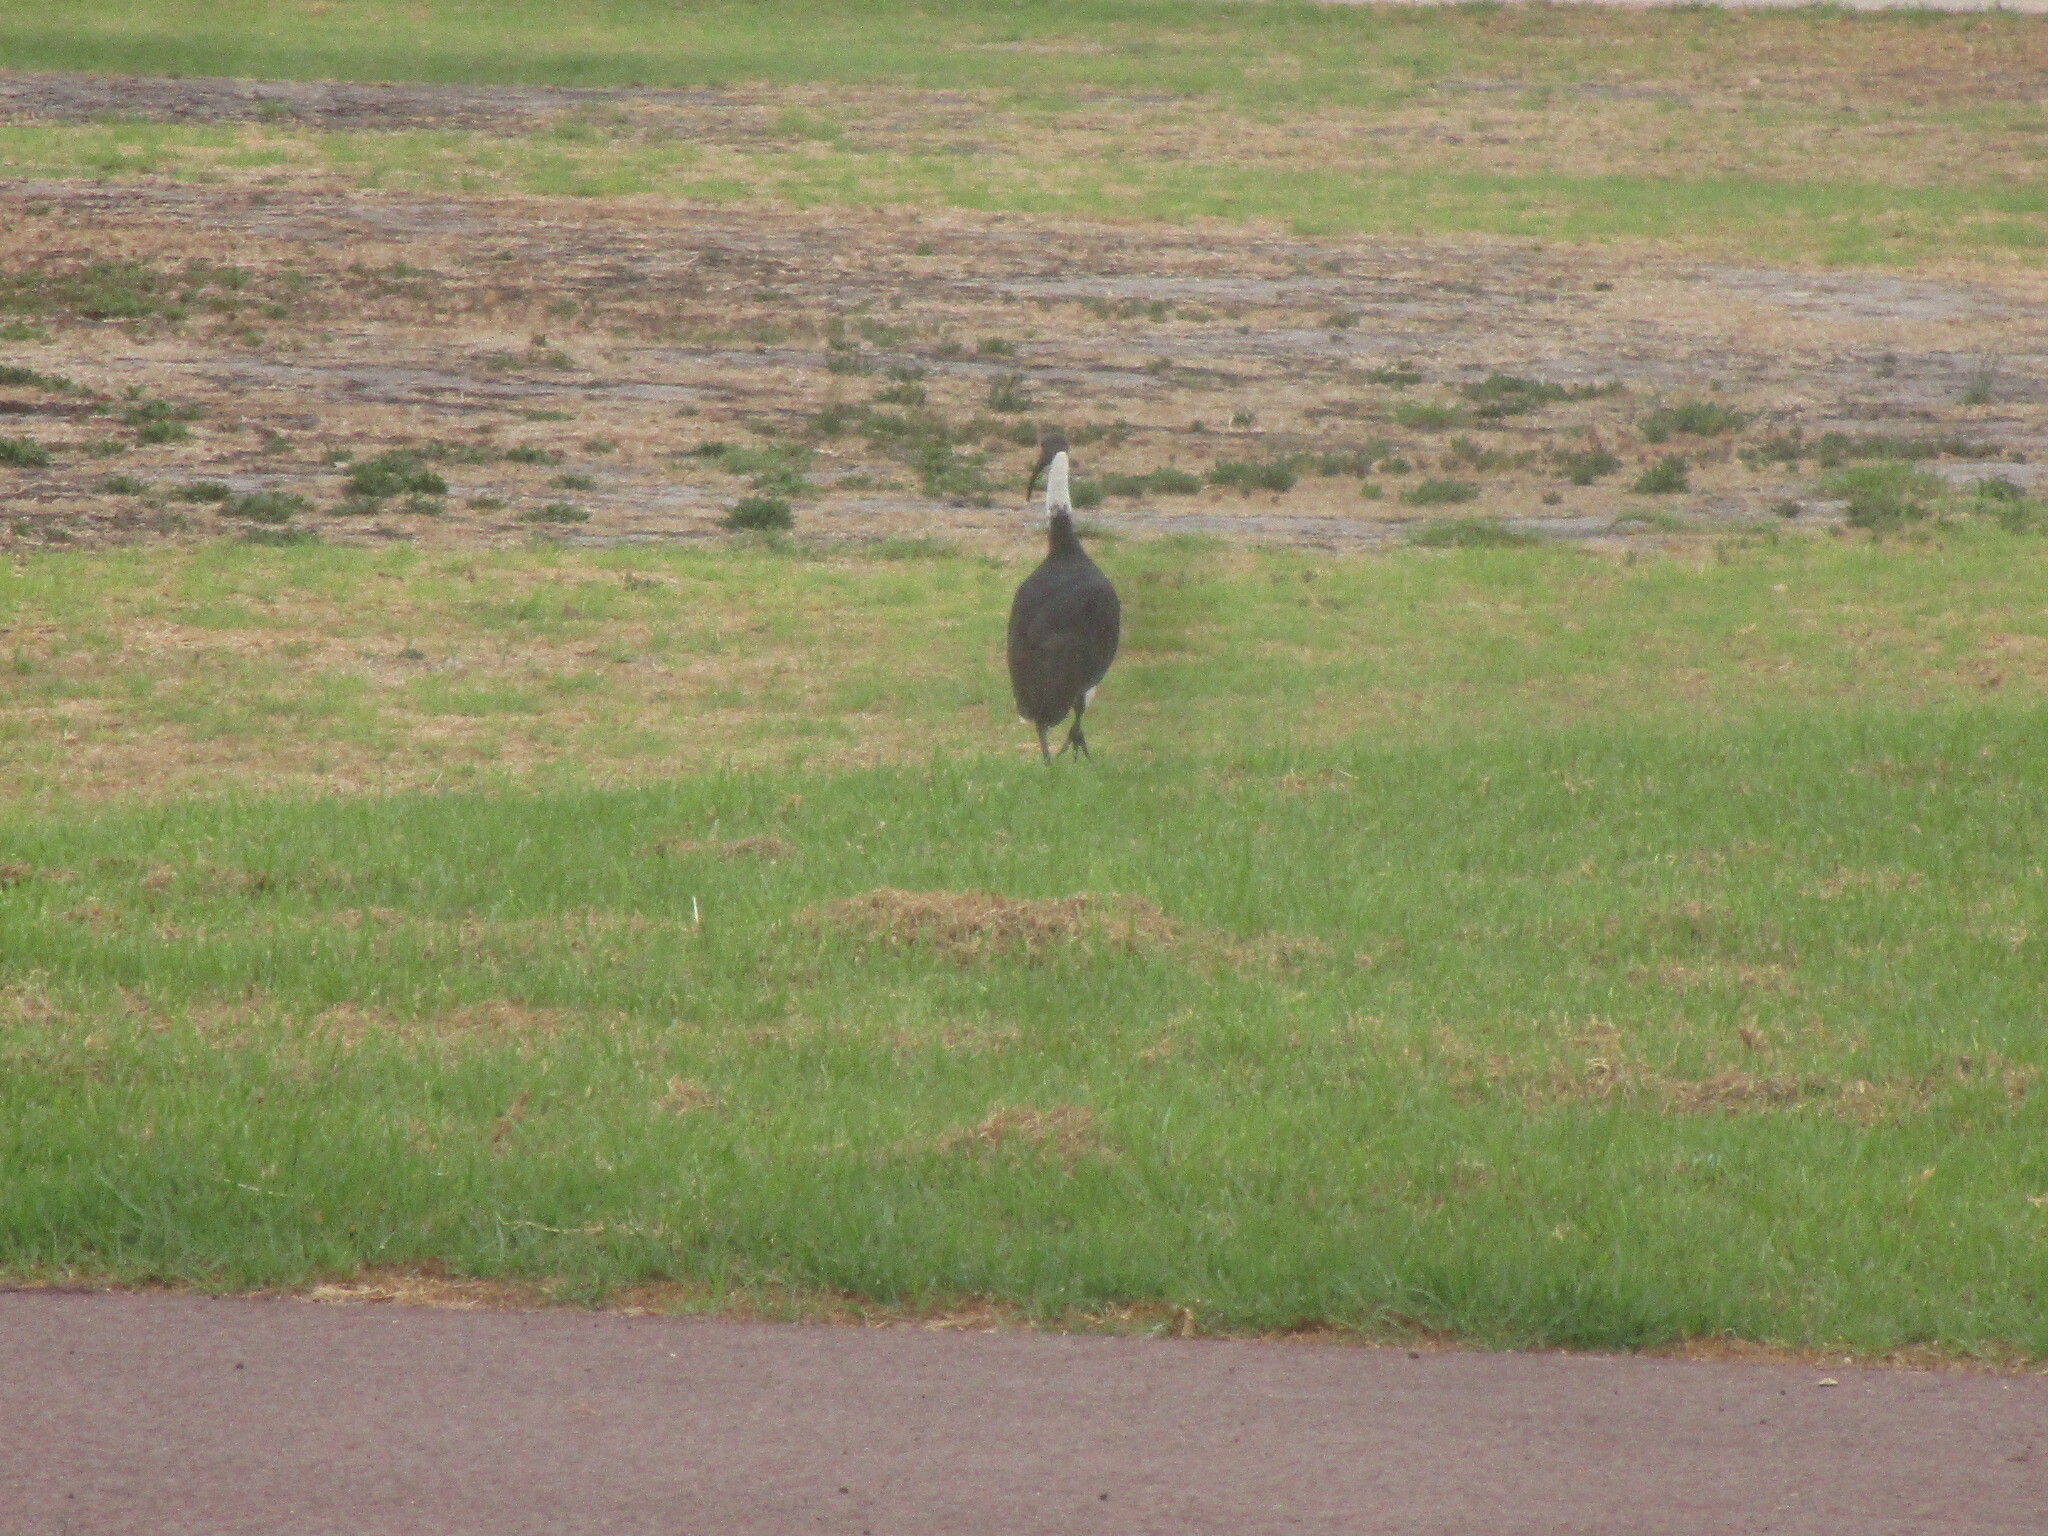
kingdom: Animalia
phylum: Chordata
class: Aves
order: Pelecaniformes
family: Threskiornithidae
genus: Threskiornis
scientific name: Threskiornis spinicollis
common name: Straw-necked ibis
